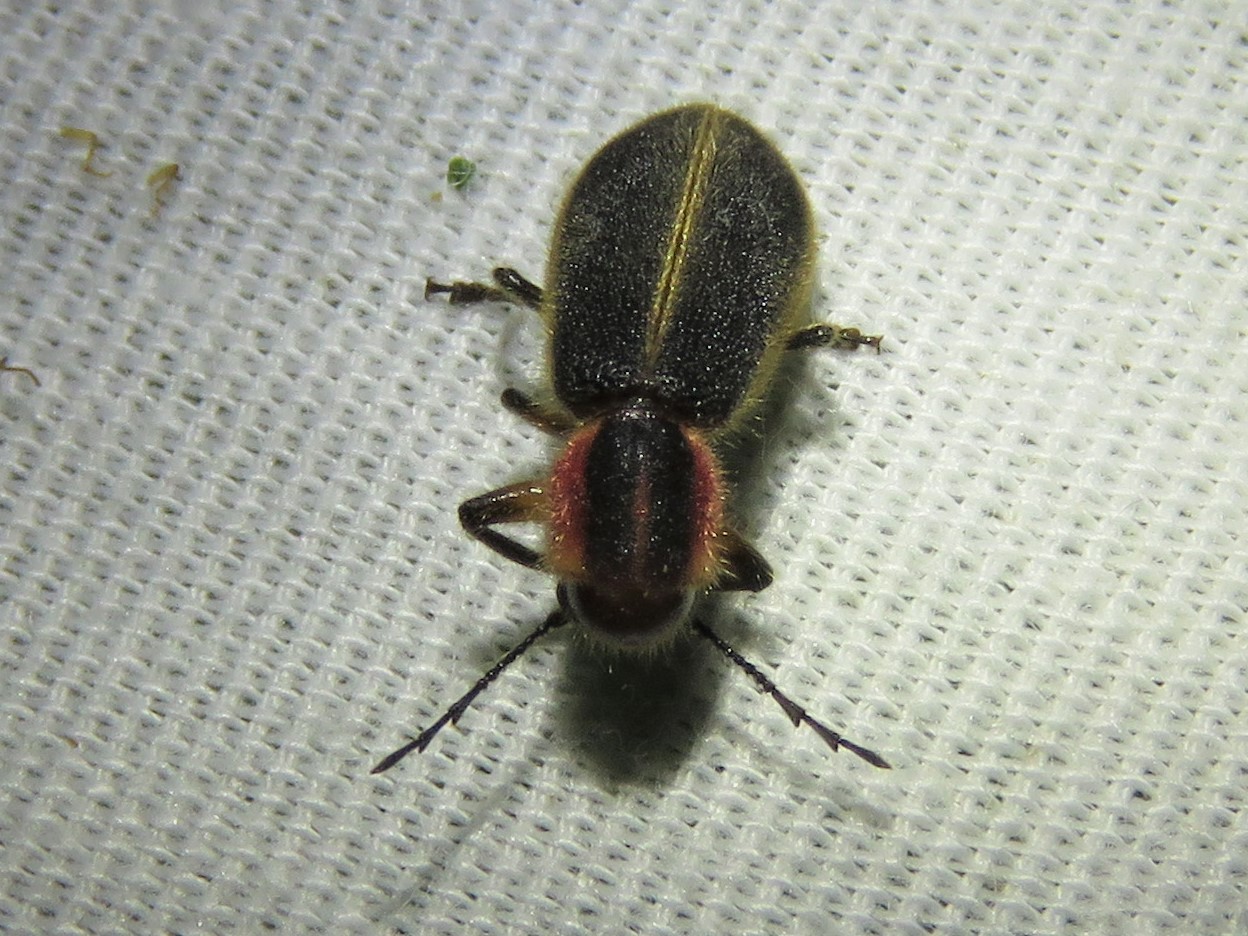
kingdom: Animalia
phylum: Arthropoda
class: Insecta
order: Coleoptera
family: Cleridae
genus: Chariessa
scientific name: Chariessa pilosa
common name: Pilose checkered beetle
